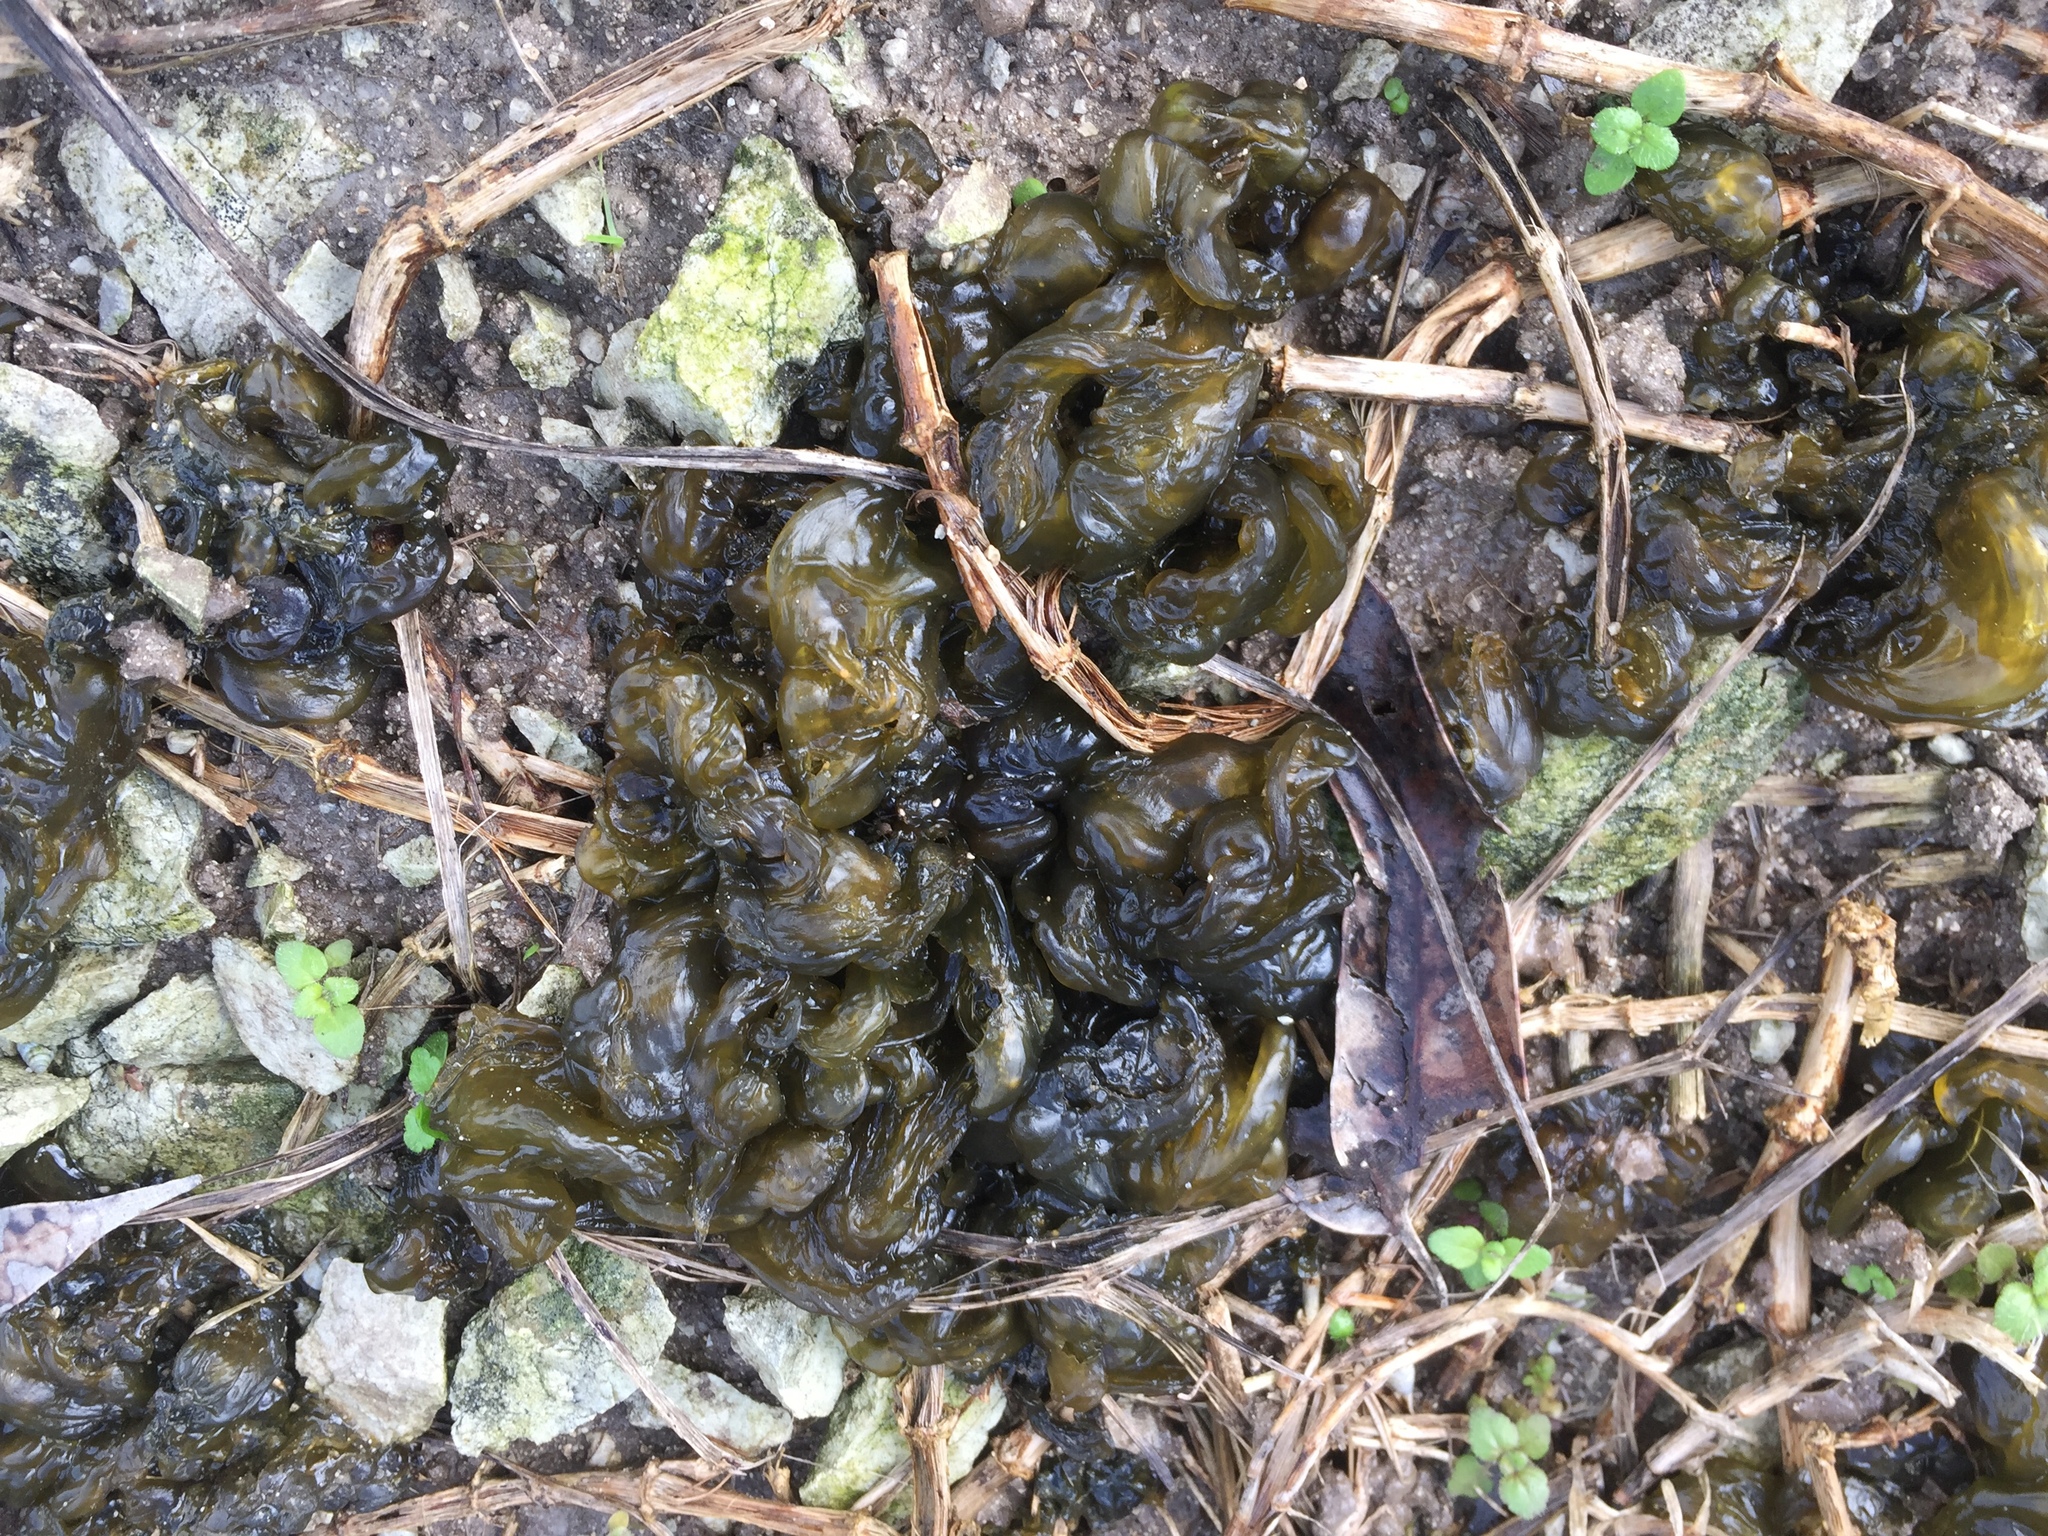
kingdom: Bacteria
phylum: Cyanobacteria
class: Cyanobacteriia
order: Cyanobacteriales
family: Nostocaceae
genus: Nostoc
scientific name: Nostoc commune
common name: Star jelly
